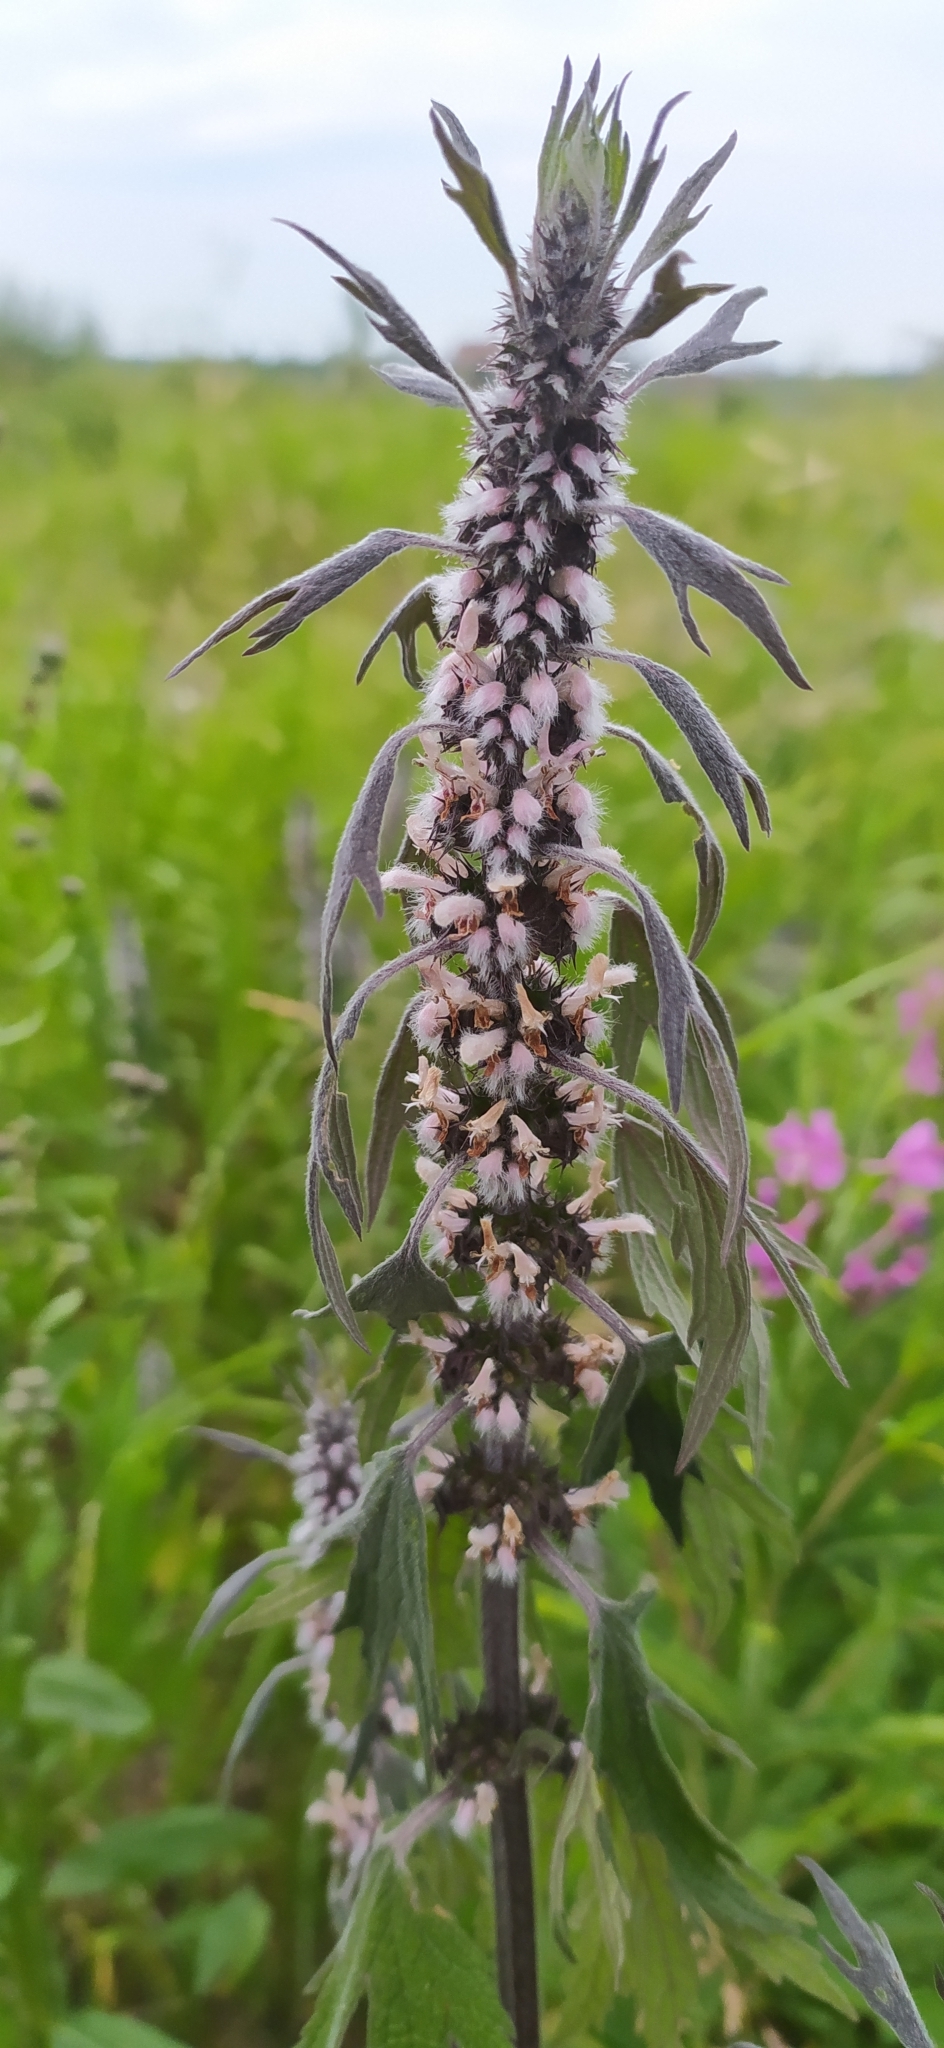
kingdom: Plantae
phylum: Tracheophyta
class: Magnoliopsida
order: Lamiales
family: Lamiaceae
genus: Leonurus
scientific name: Leonurus quinquelobatus
